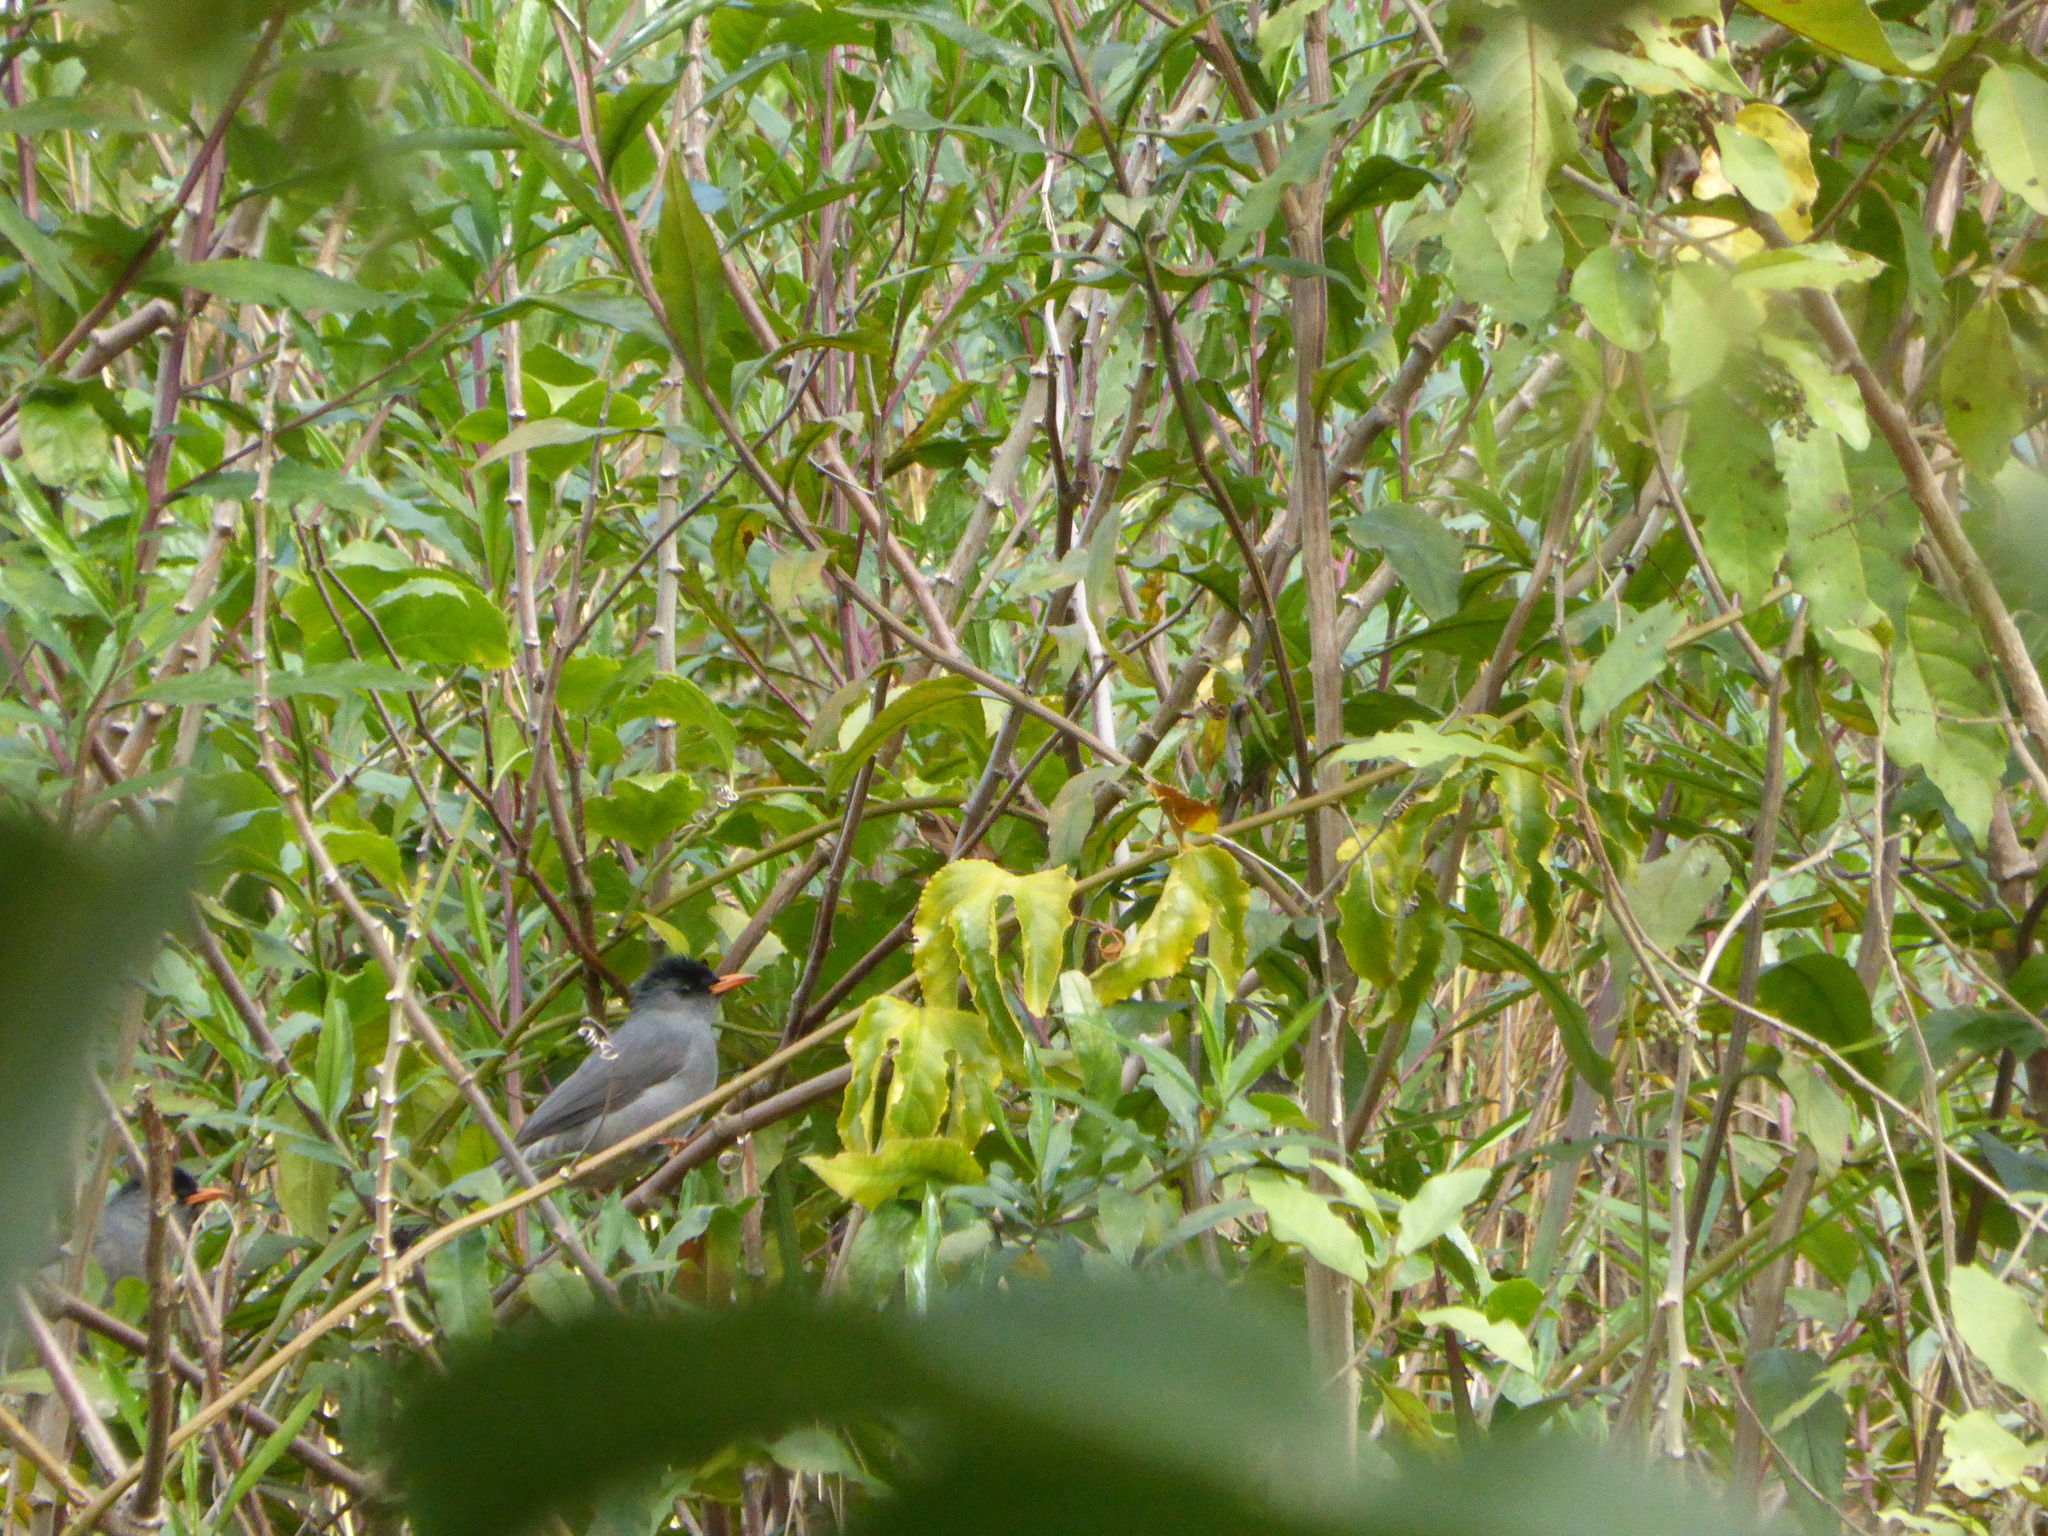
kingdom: Animalia
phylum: Chordata
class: Aves
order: Passeriformes
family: Pycnonotidae
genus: Hypsipetes
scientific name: Hypsipetes madagascariensis
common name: Malagasy bulbul
